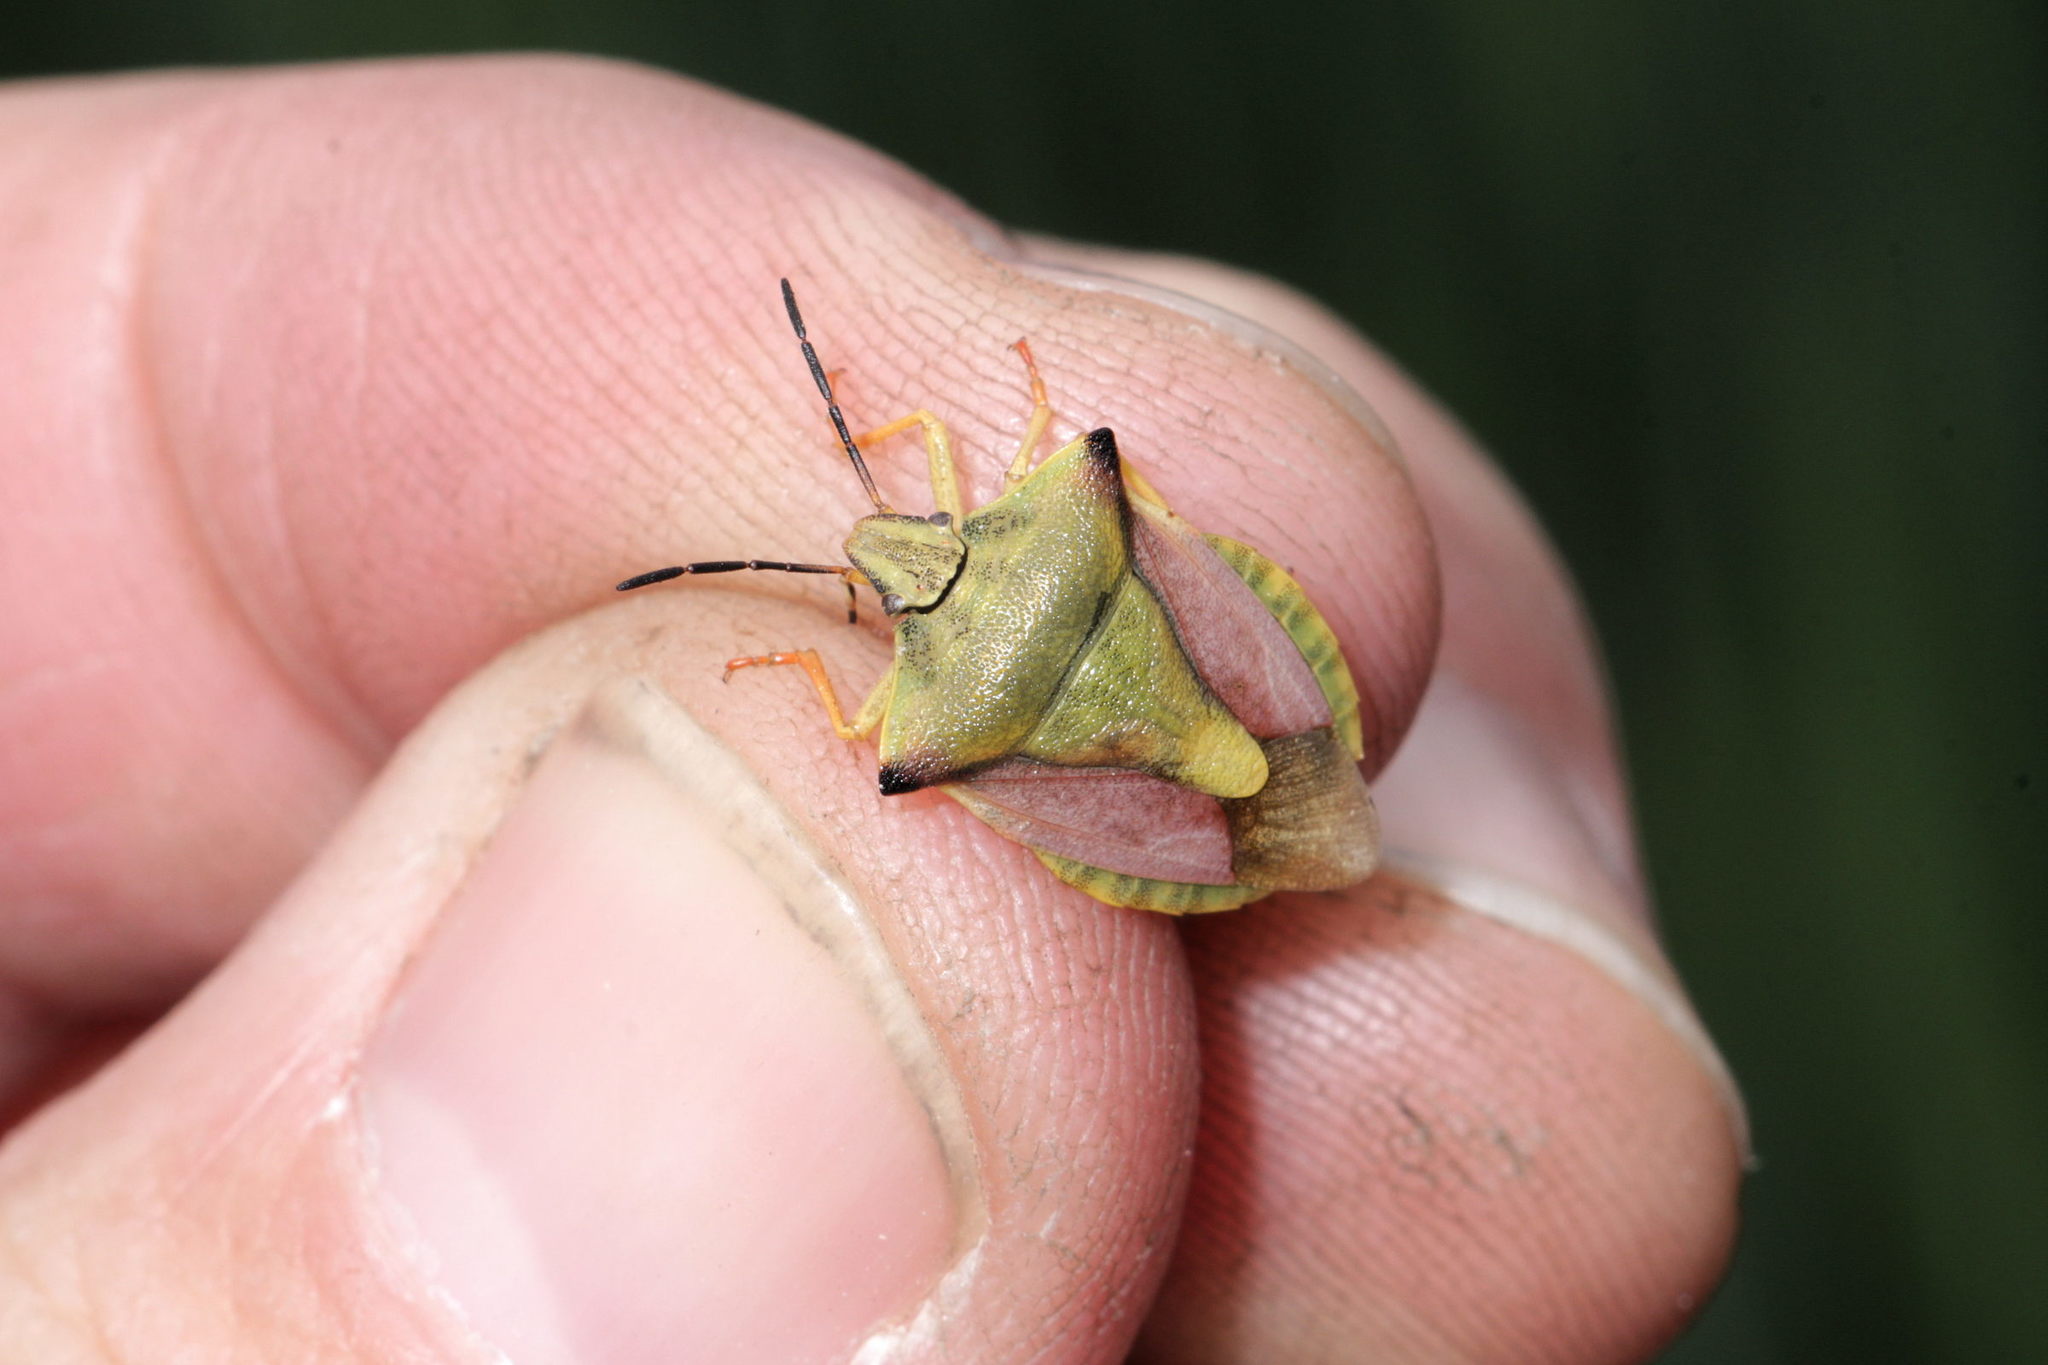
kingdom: Animalia
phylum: Arthropoda
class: Insecta
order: Hemiptera
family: Pentatomidae
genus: Carpocoris
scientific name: Carpocoris fuscispinus
